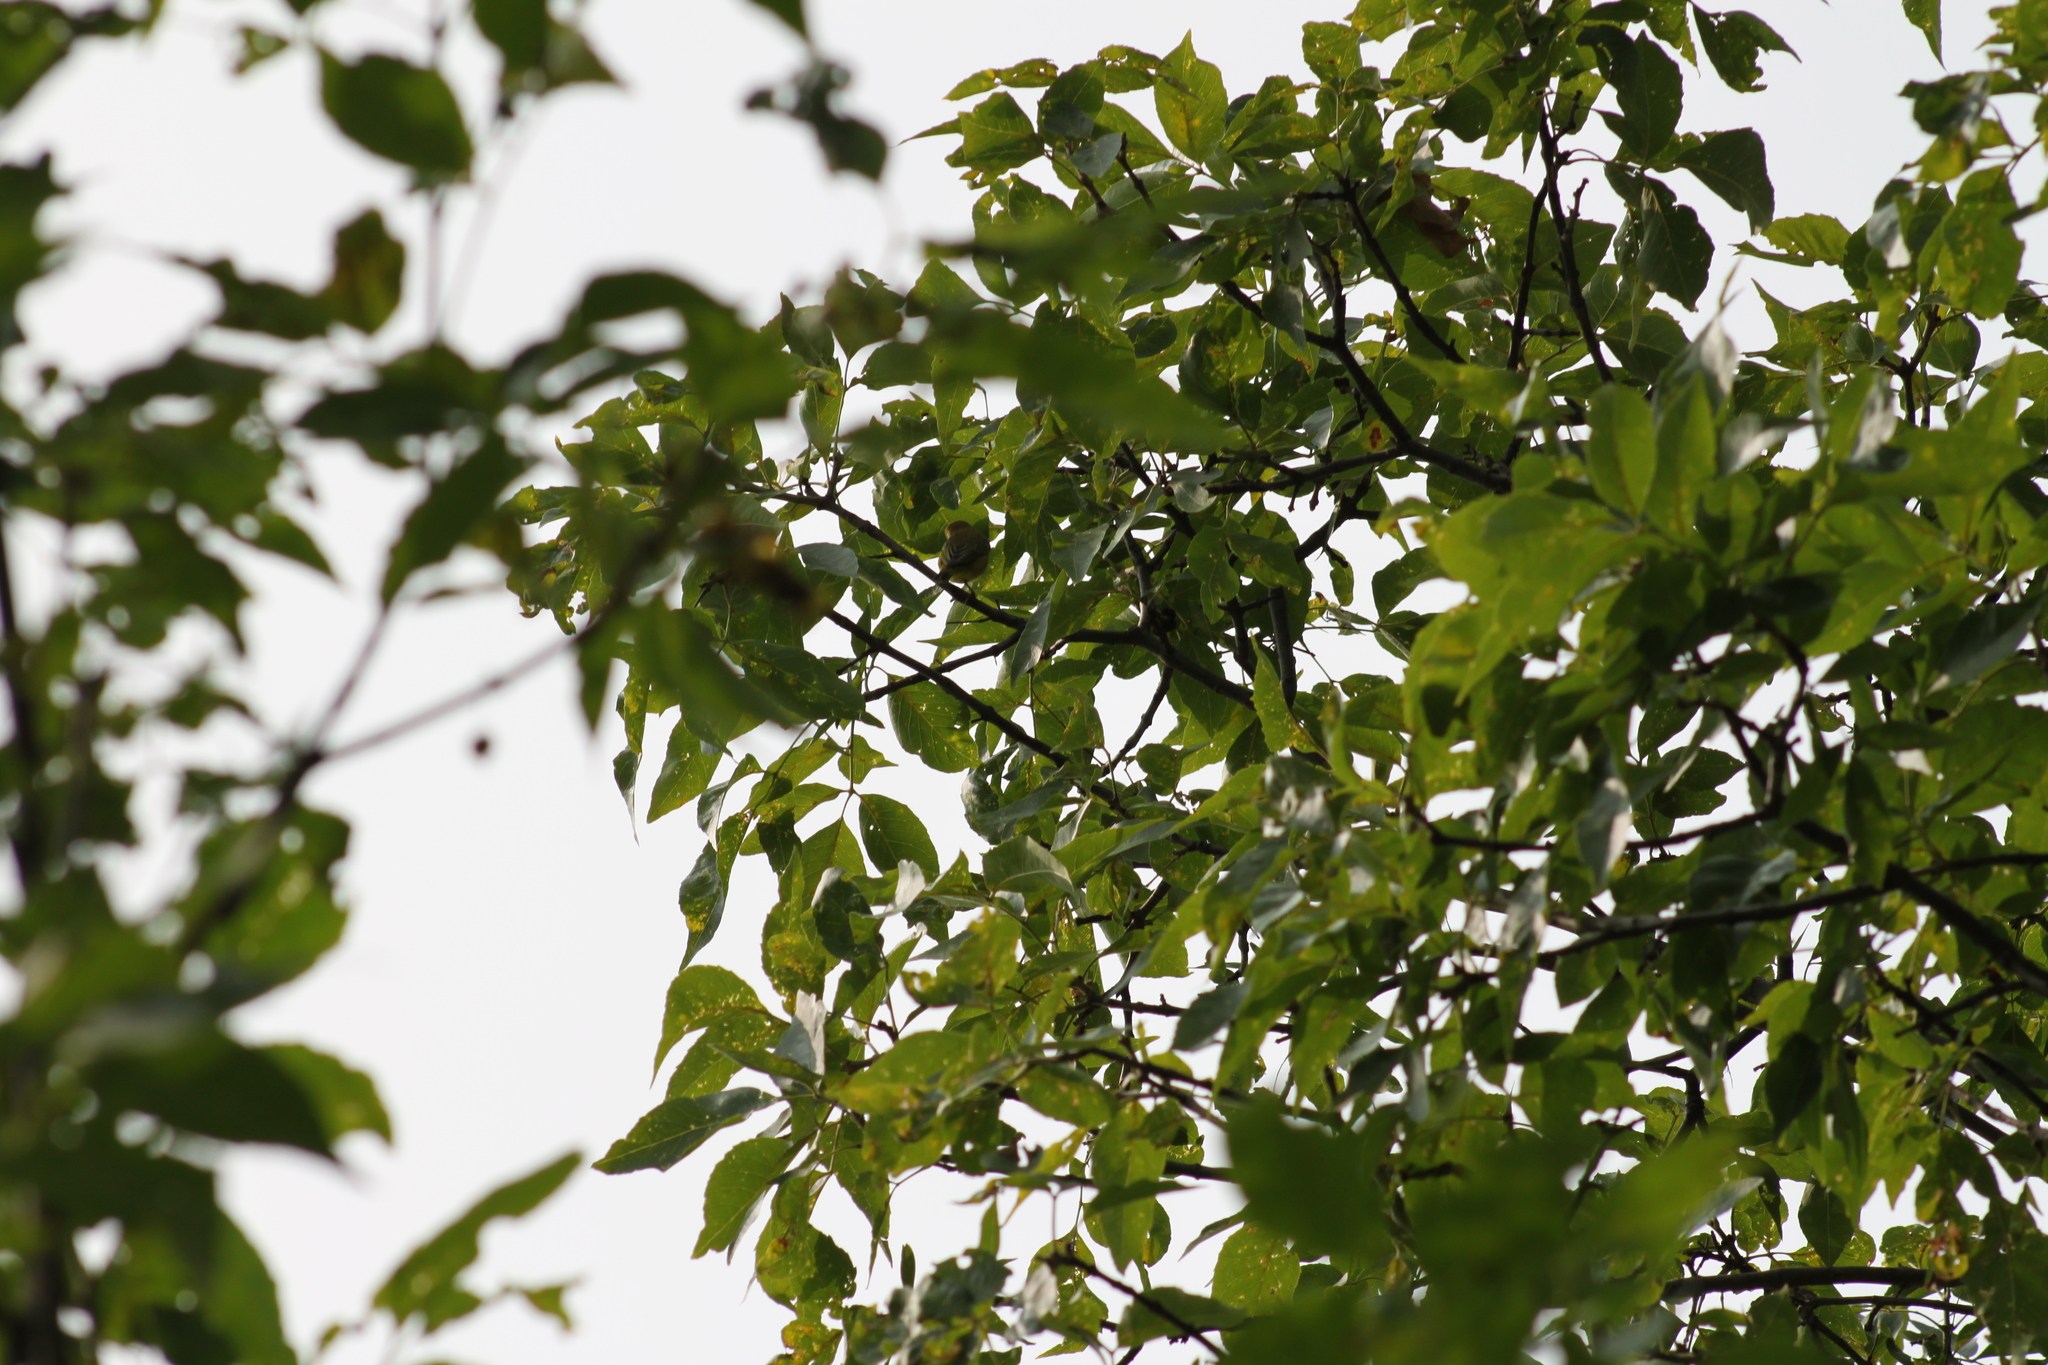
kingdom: Animalia
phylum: Chordata
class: Aves
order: Passeriformes
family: Parulidae
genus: Setophaga
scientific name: Setophaga petechia
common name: Yellow warbler
